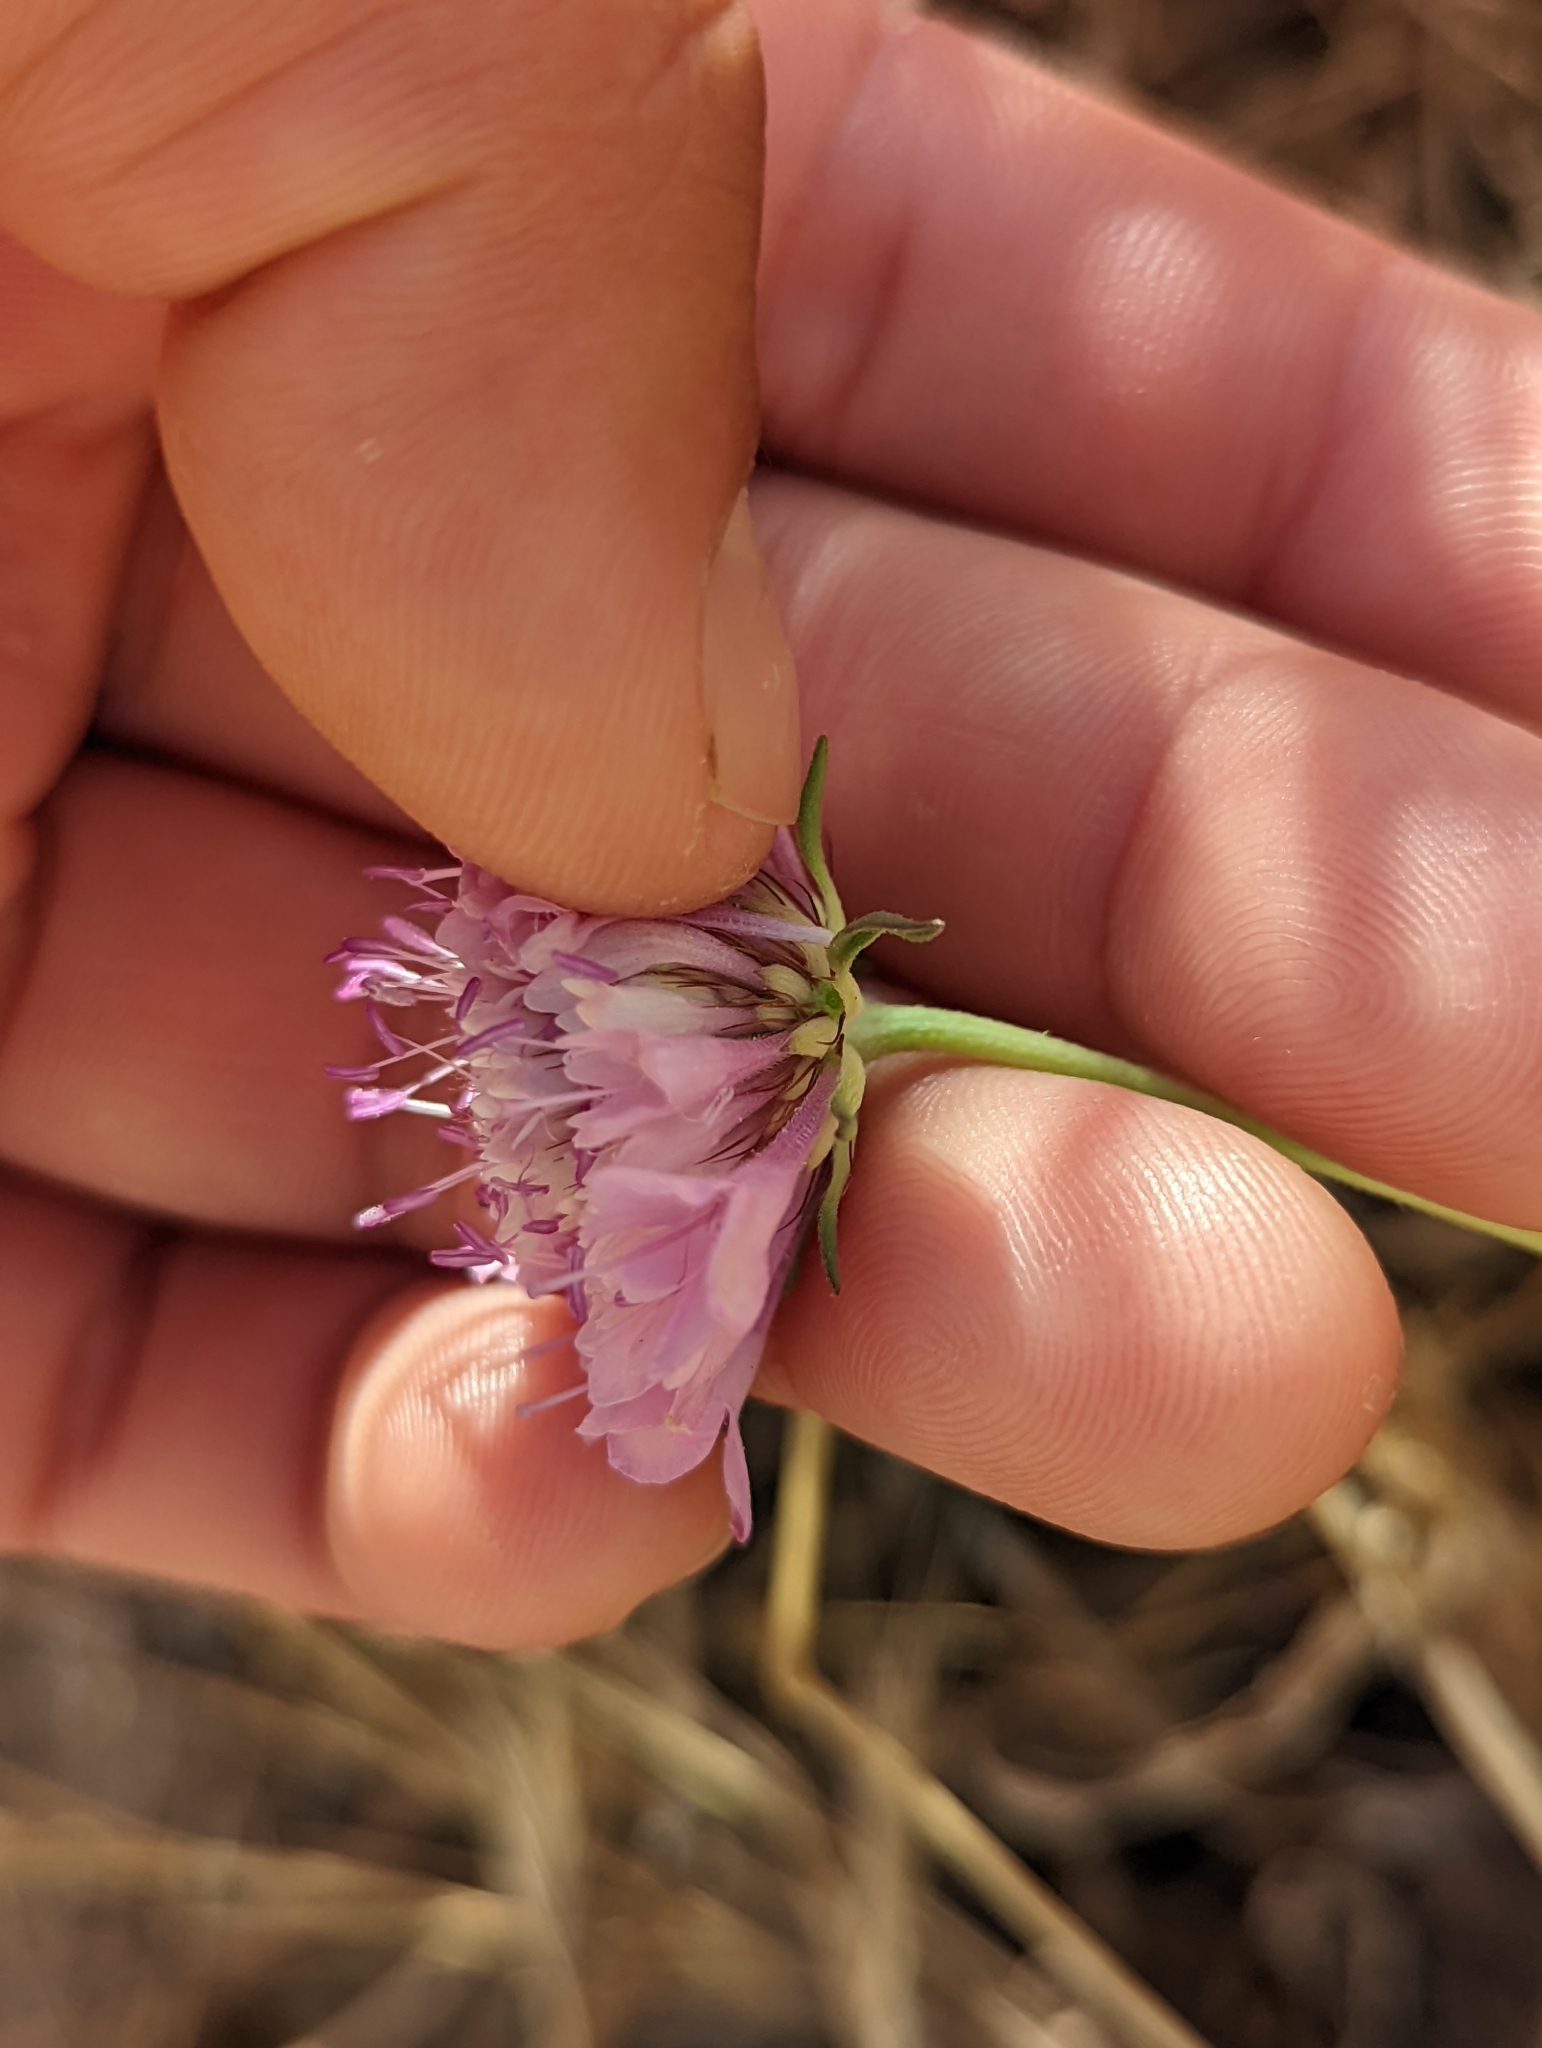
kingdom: Plantae
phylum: Tracheophyta
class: Magnoliopsida
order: Dipsacales
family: Caprifoliaceae
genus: Sixalix
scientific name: Sixalix atropurpurea
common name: Sweet scabious
